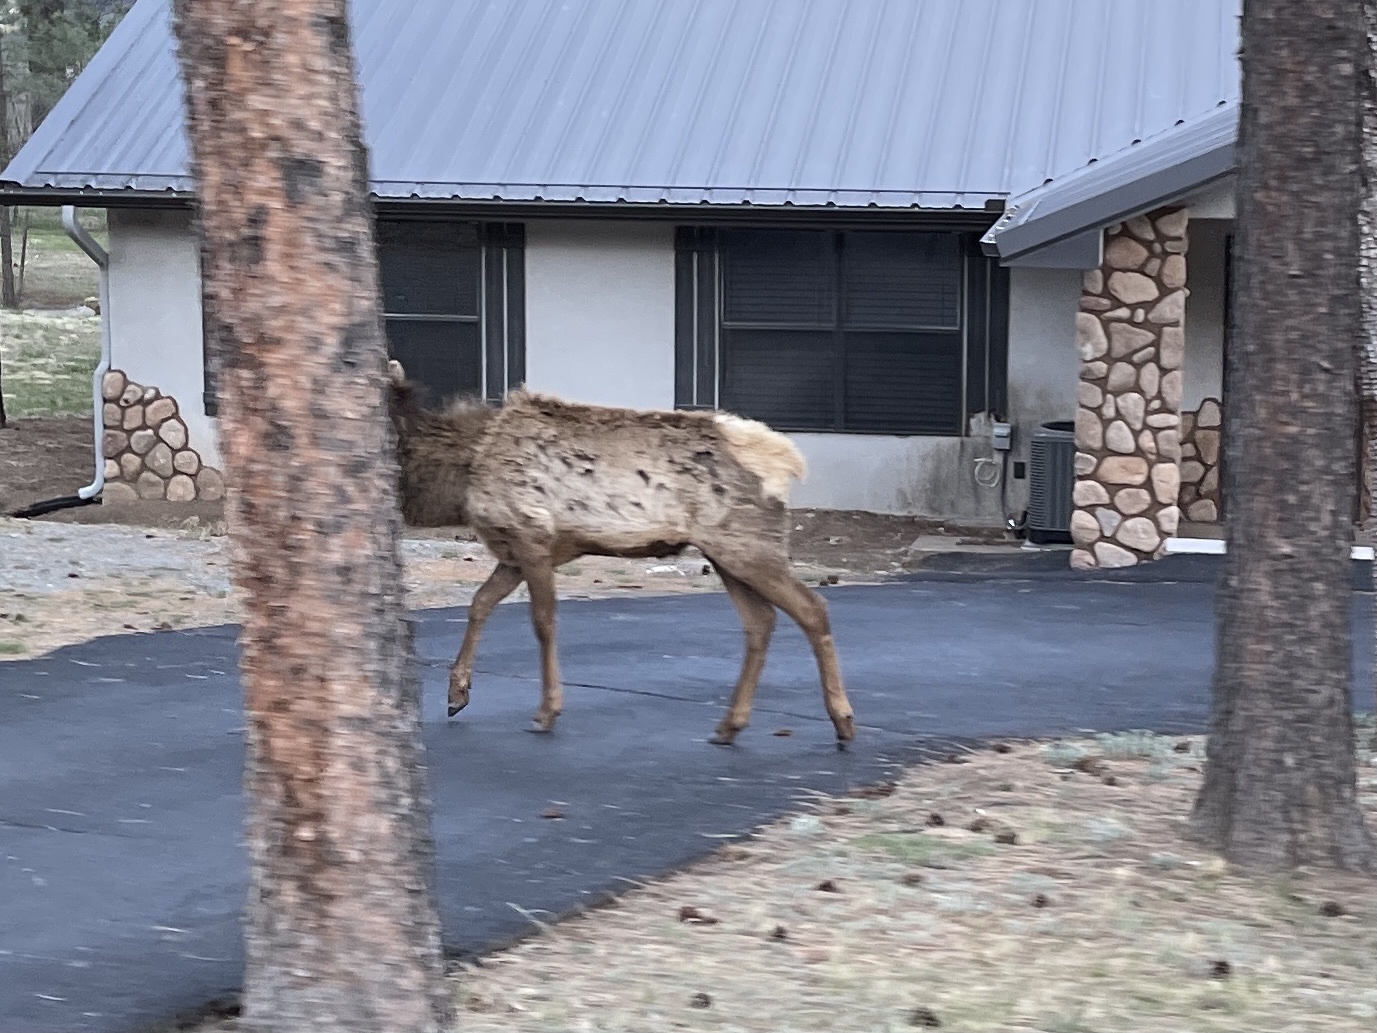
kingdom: Animalia
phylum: Chordata
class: Mammalia
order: Artiodactyla
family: Cervidae
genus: Cervus
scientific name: Cervus elaphus
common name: Red deer
